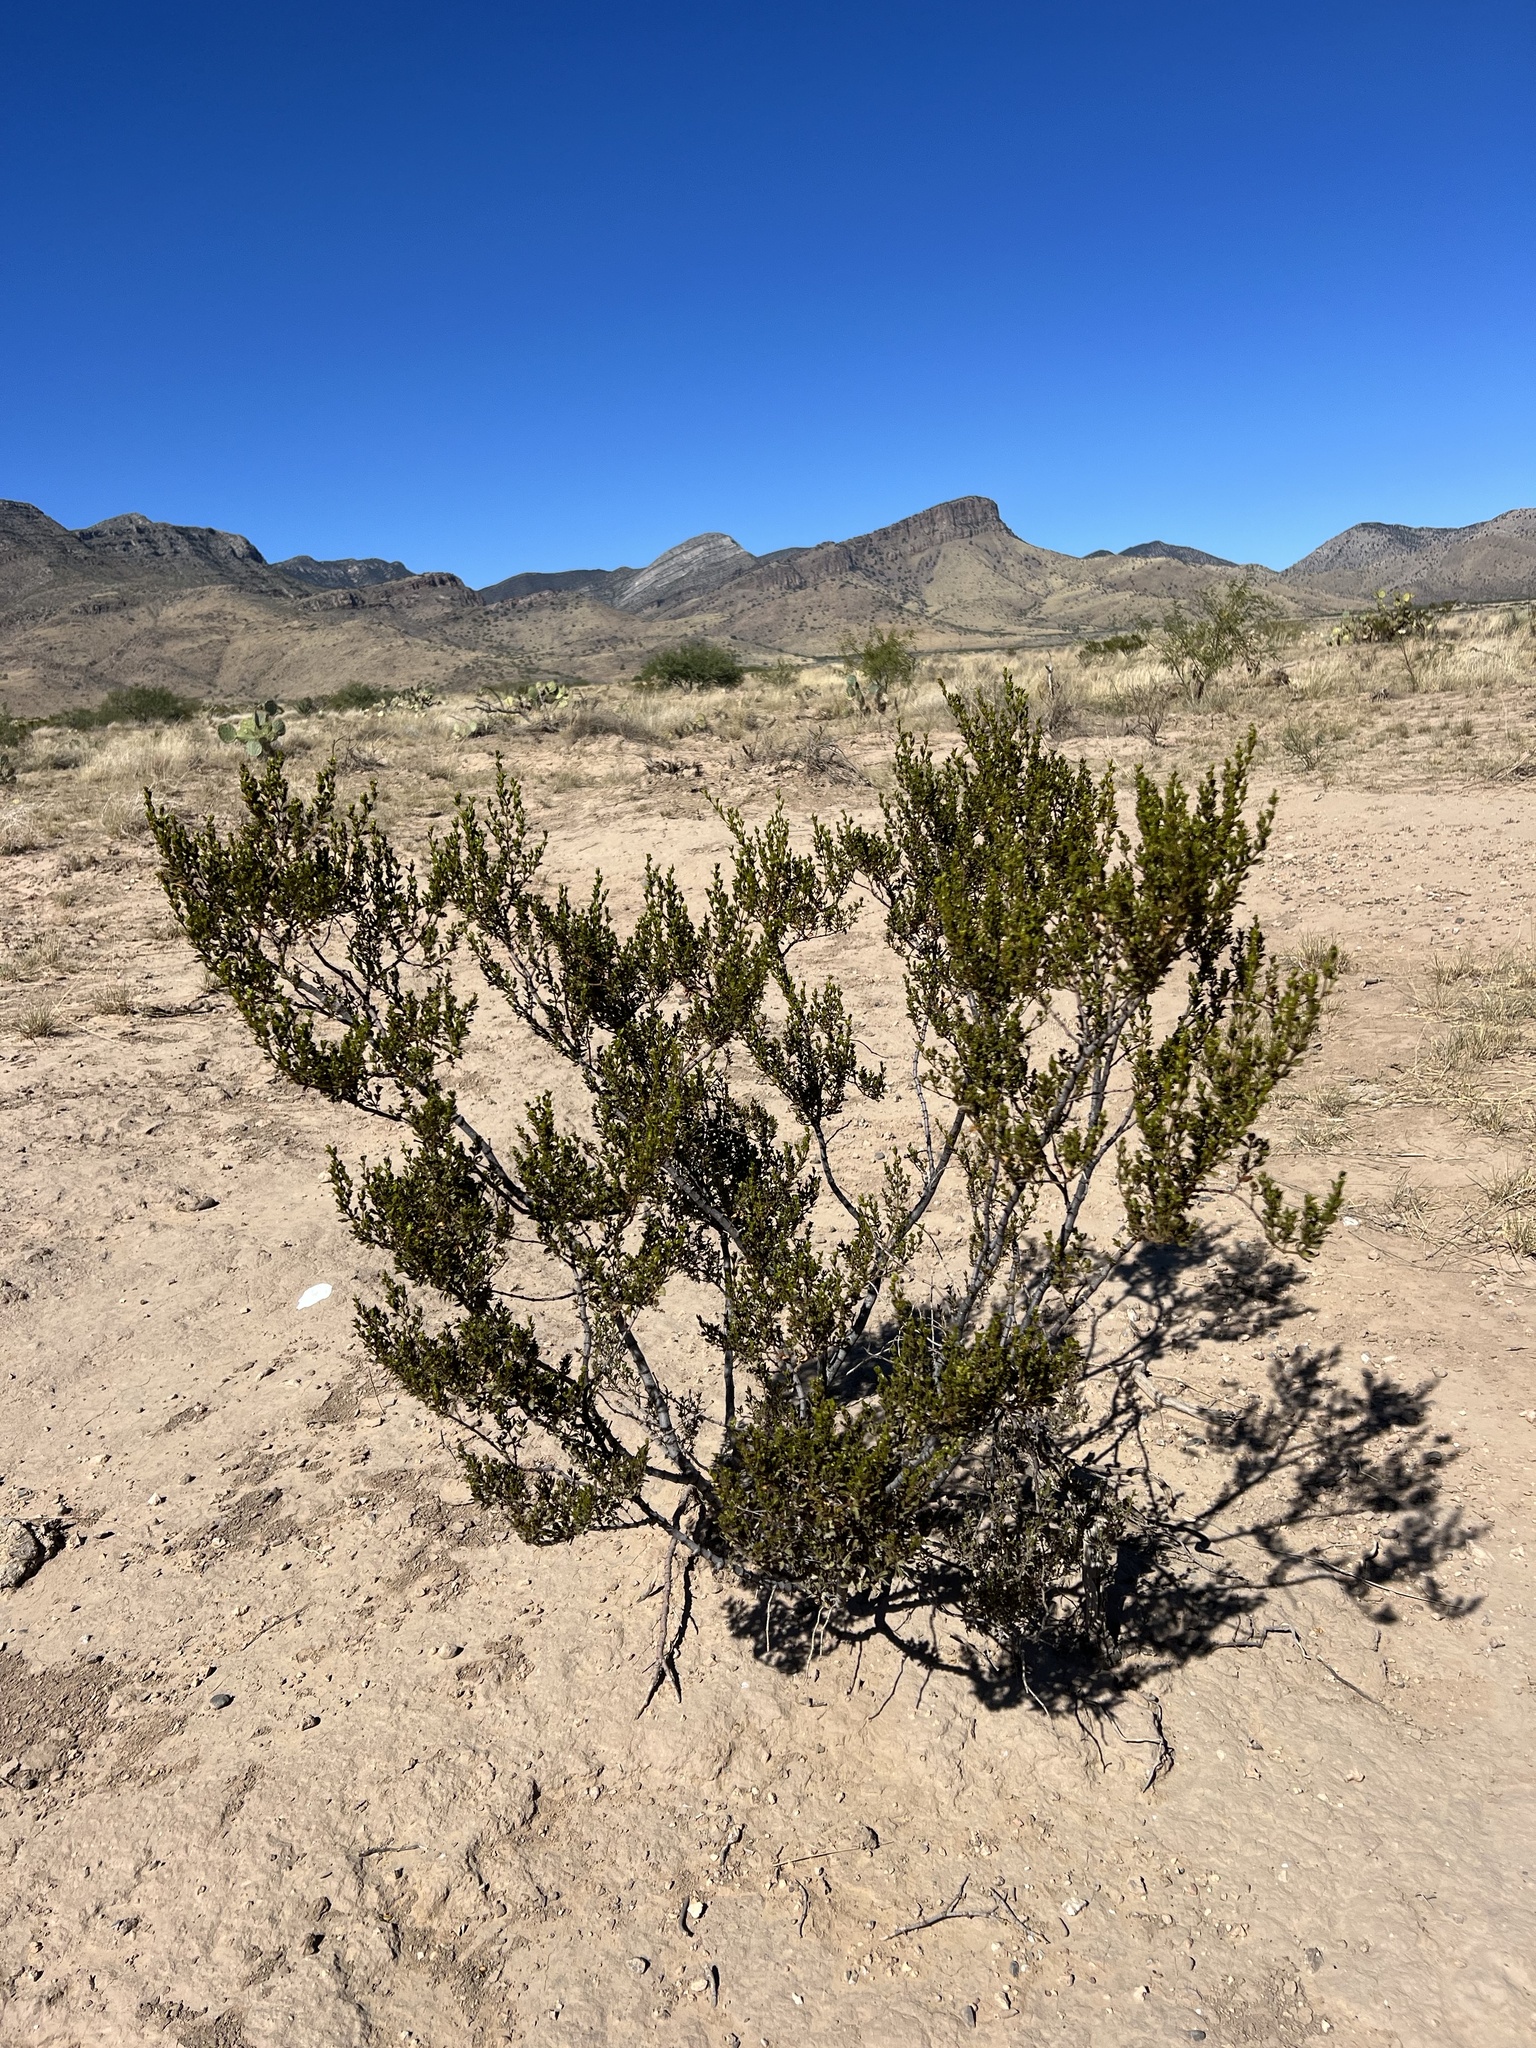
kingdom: Plantae
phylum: Tracheophyta
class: Magnoliopsida
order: Zygophyllales
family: Zygophyllaceae
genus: Larrea
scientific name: Larrea tridentata
